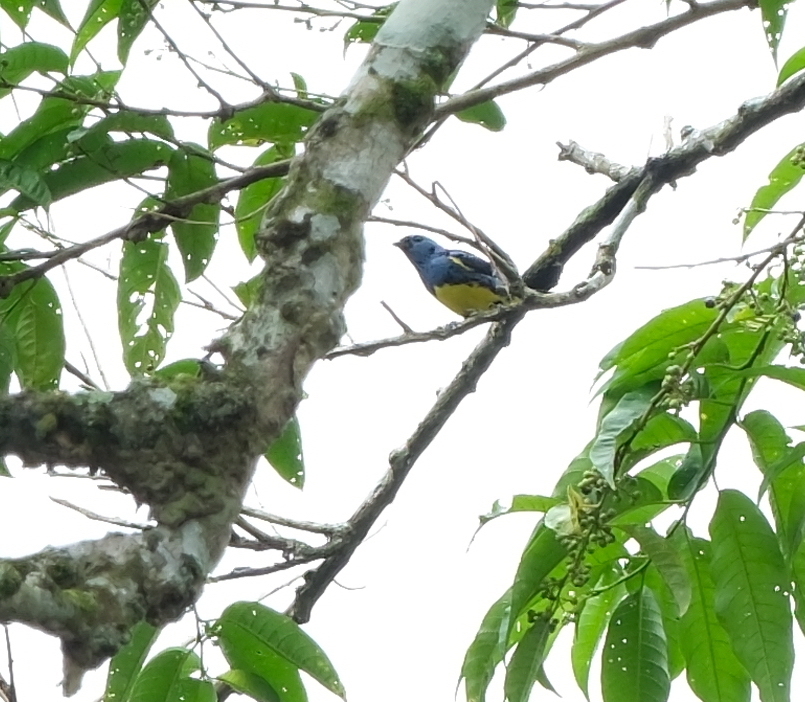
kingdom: Animalia
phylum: Chordata
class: Aves
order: Passeriformes
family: Thraupidae
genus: Tangara
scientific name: Tangara mexicana
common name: Turquoise tanager
